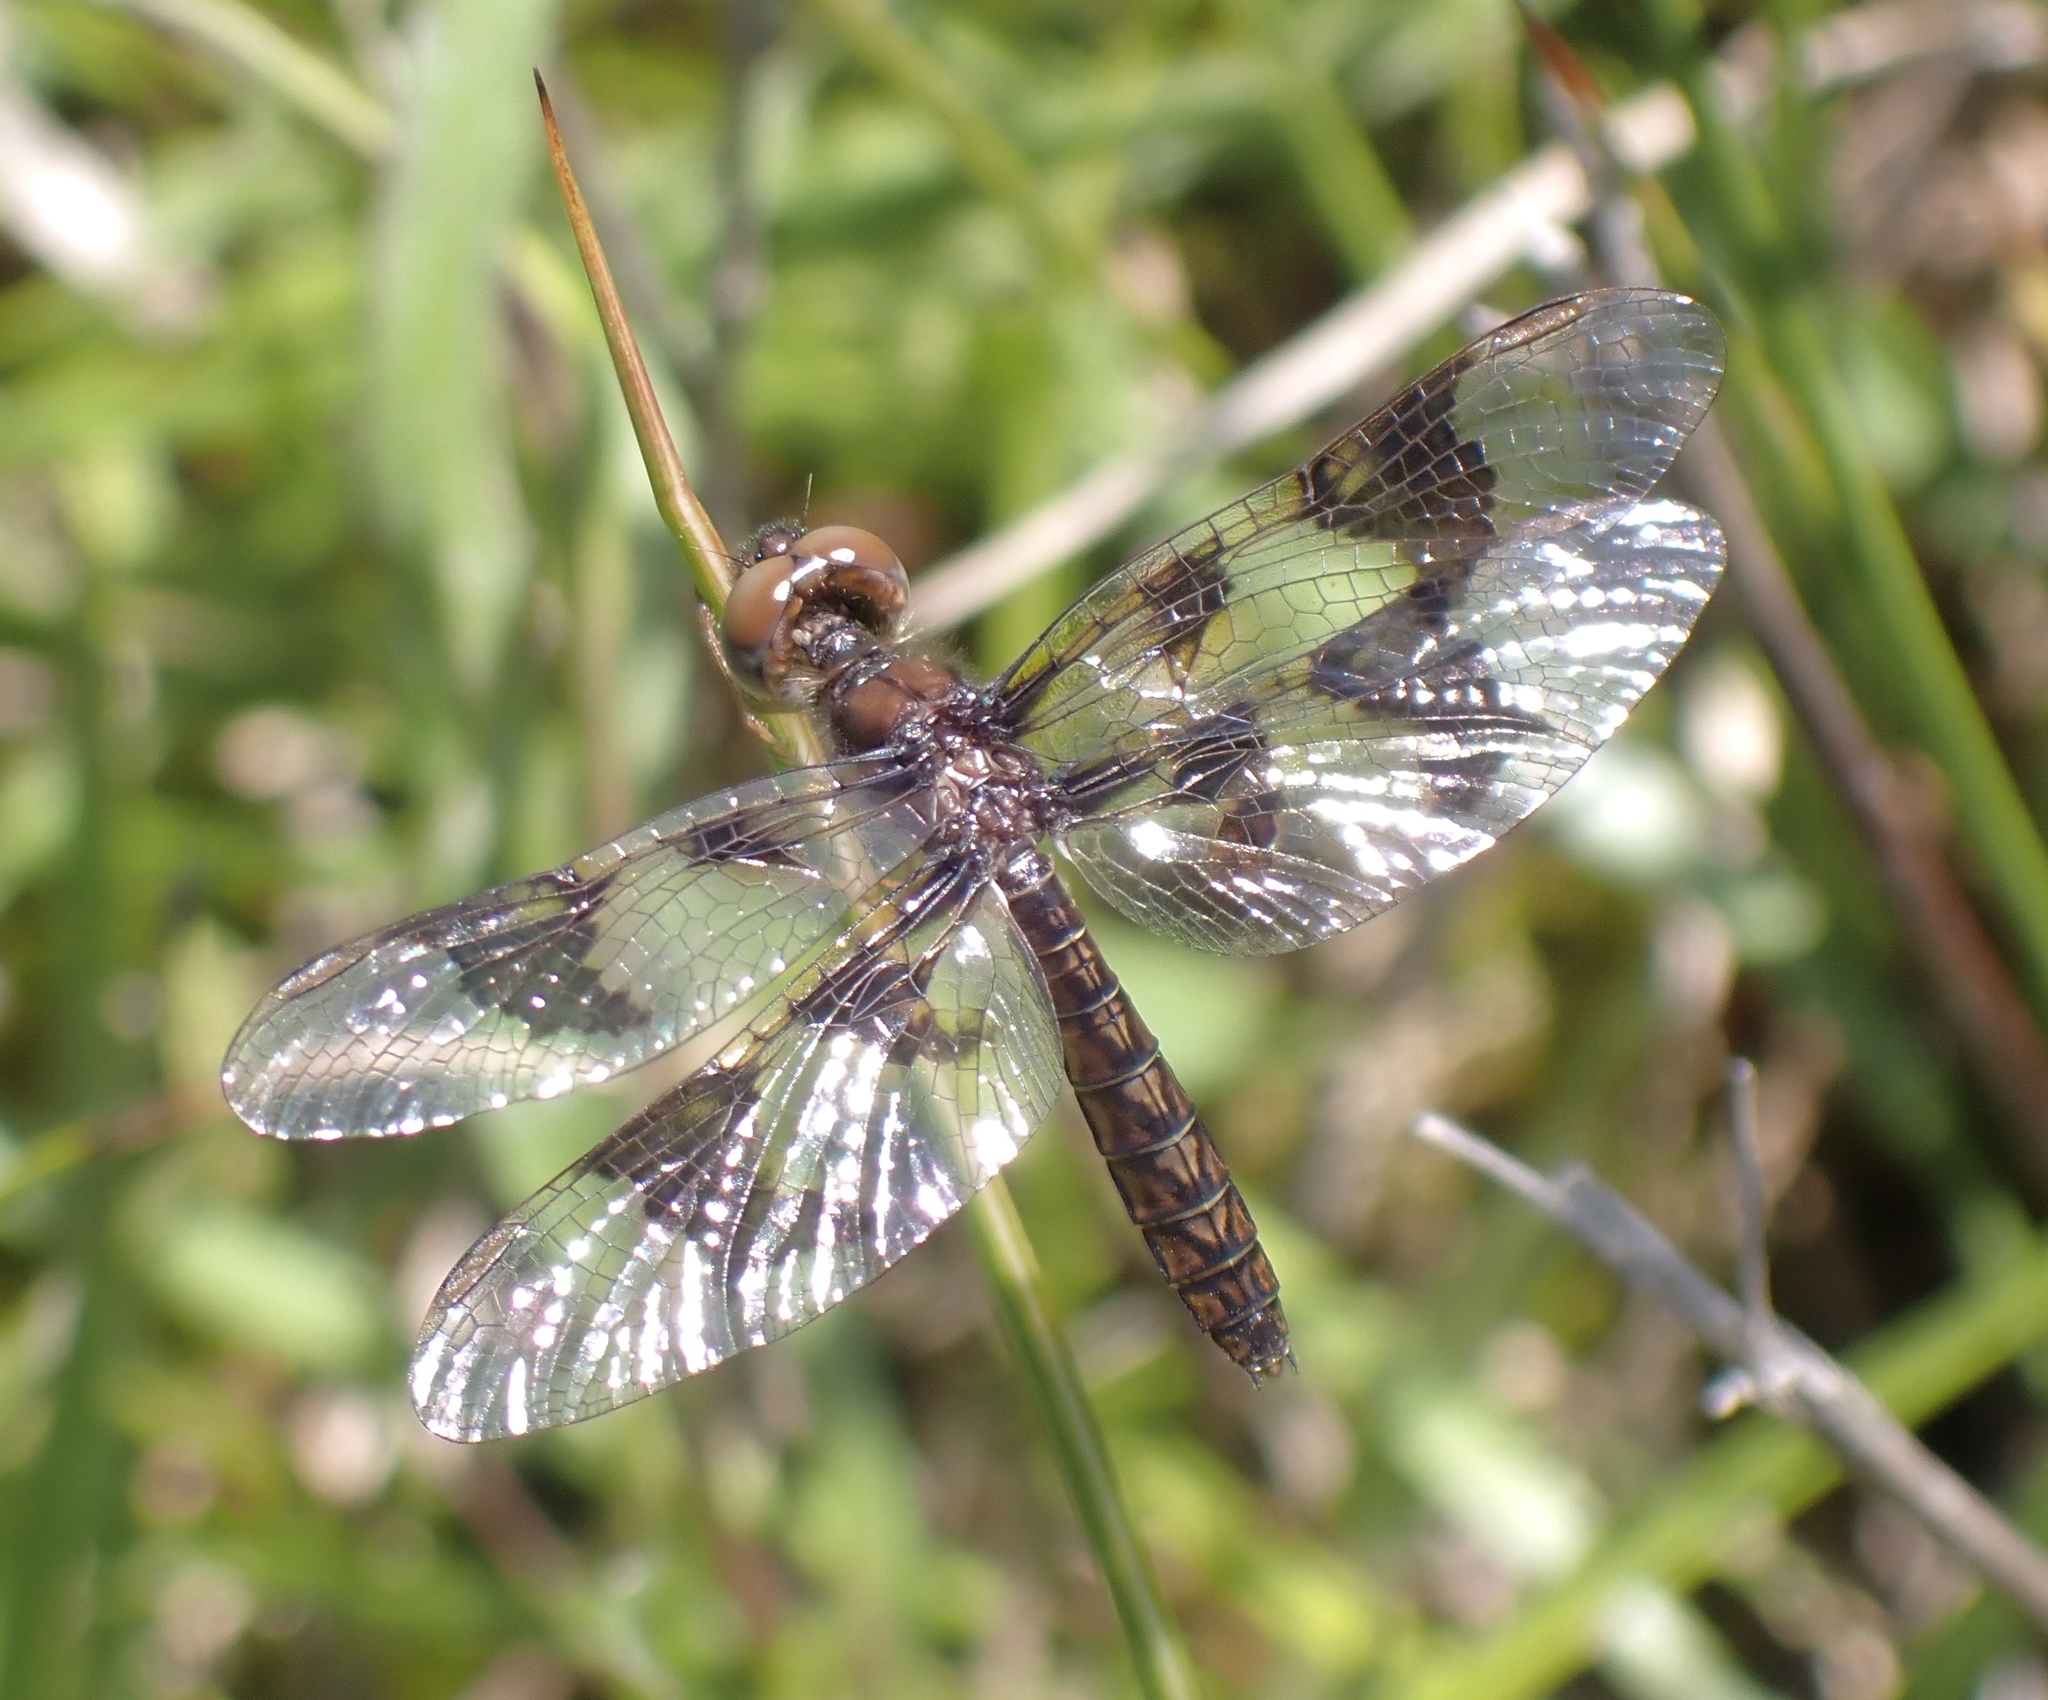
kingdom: Animalia
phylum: Arthropoda
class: Insecta
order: Odonata
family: Libellulidae
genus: Perithemis
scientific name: Perithemis tenera
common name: Eastern amberwing
